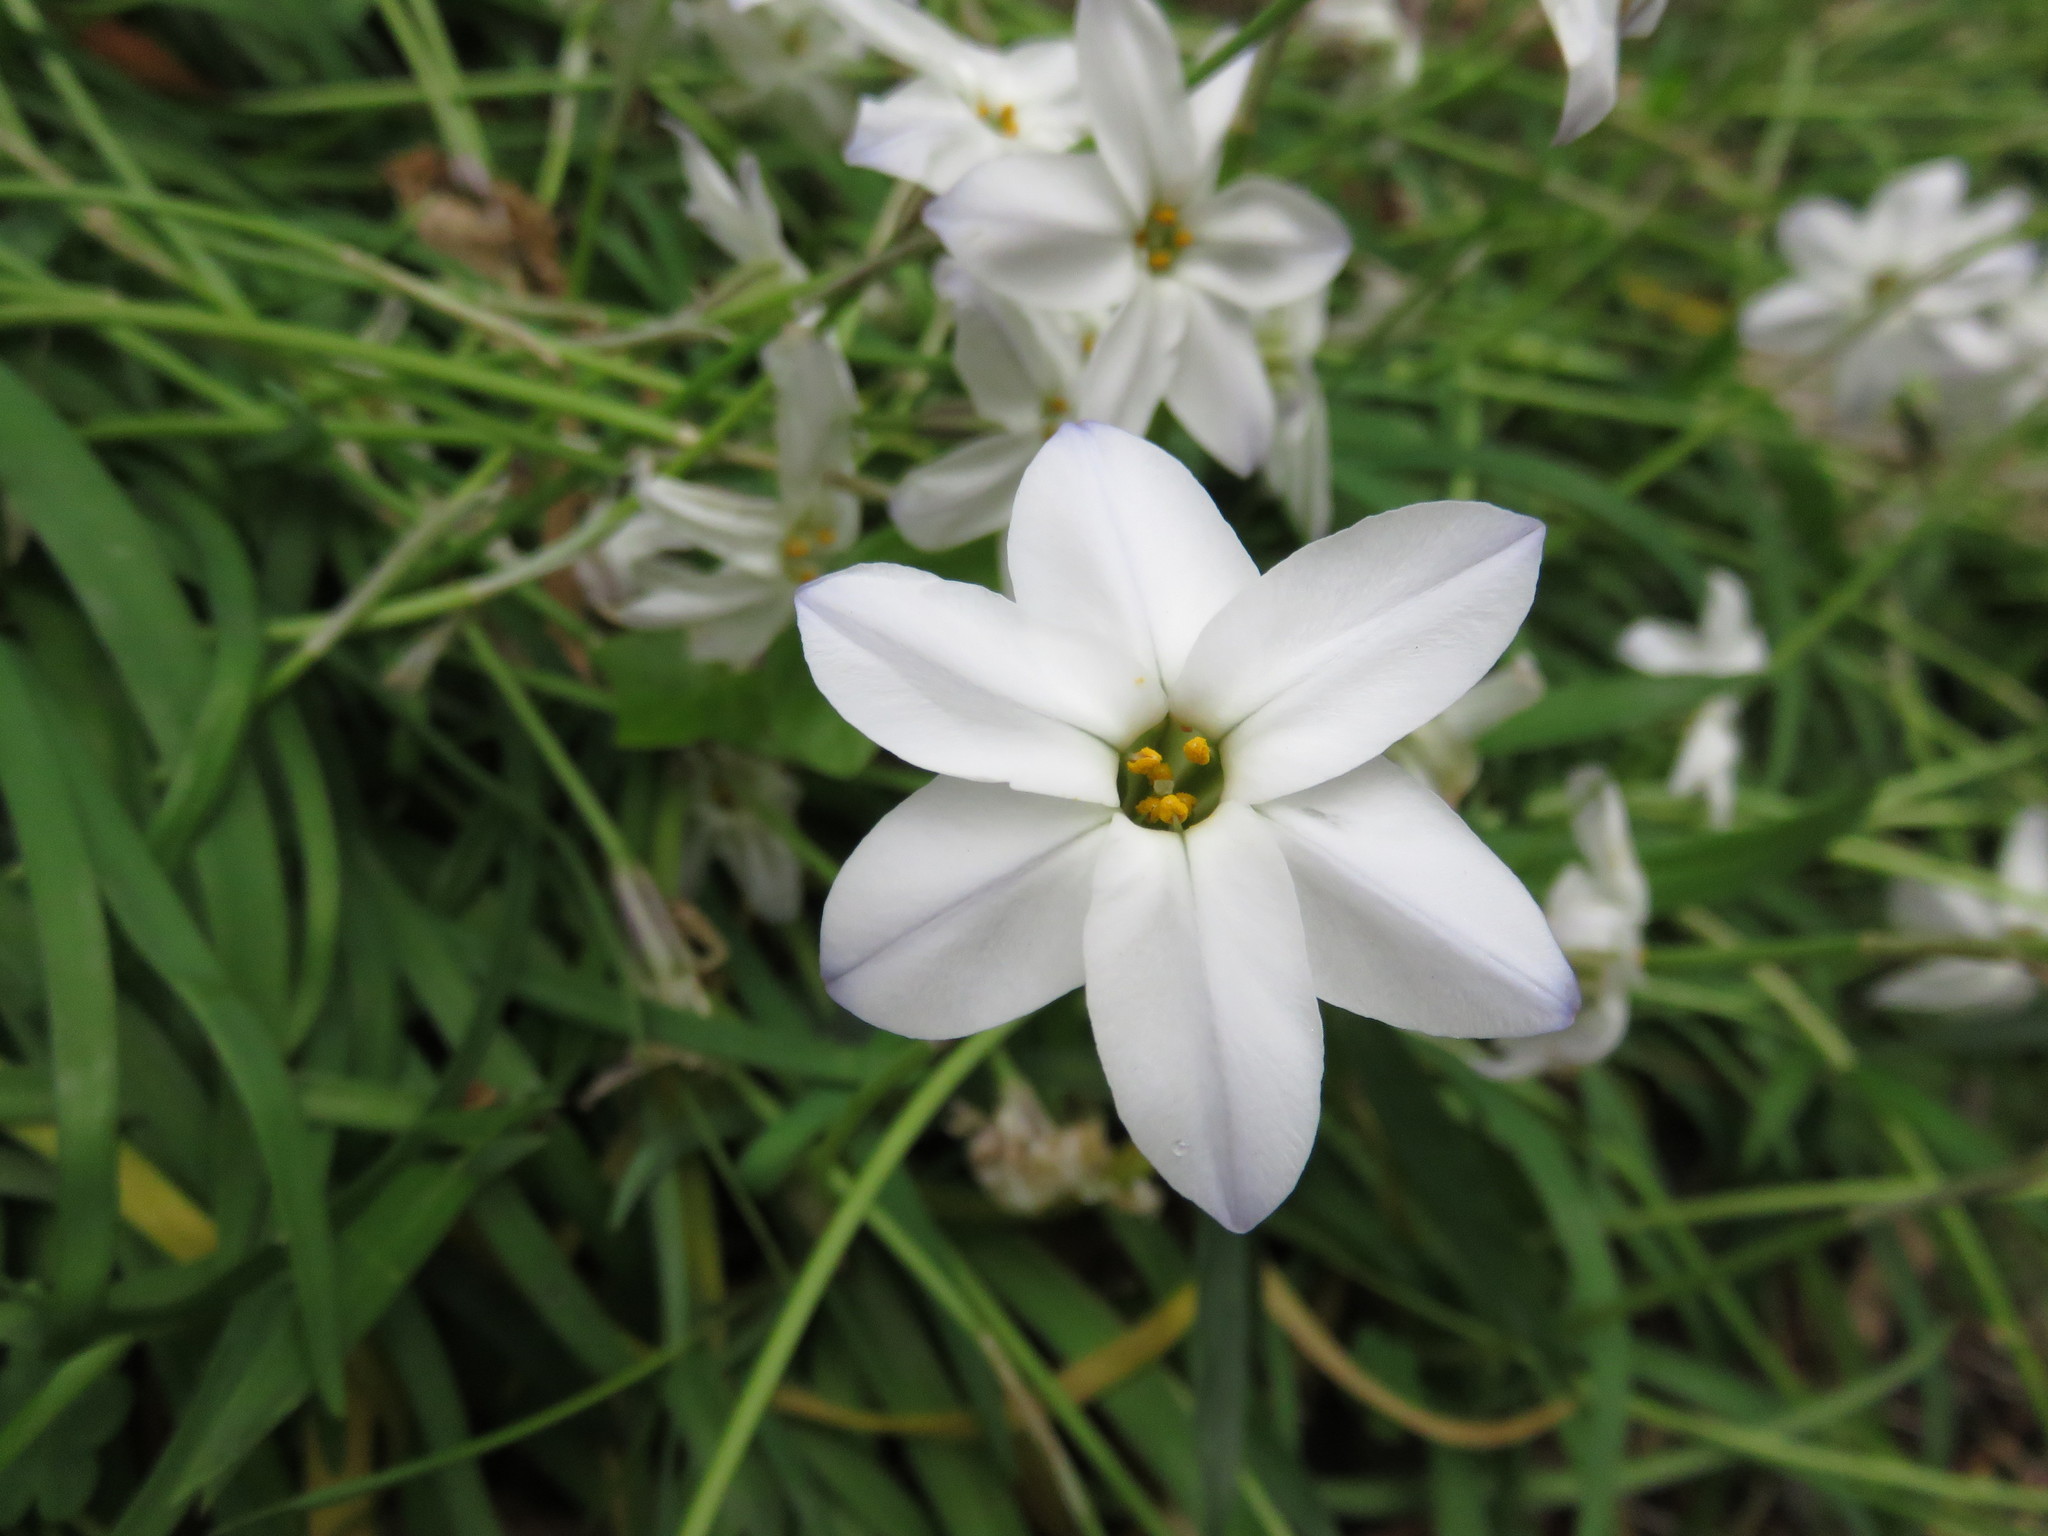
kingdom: Plantae
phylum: Tracheophyta
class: Liliopsida
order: Asparagales
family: Amaryllidaceae
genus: Ipheion
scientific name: Ipheion uniflorum
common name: Spring starflower
